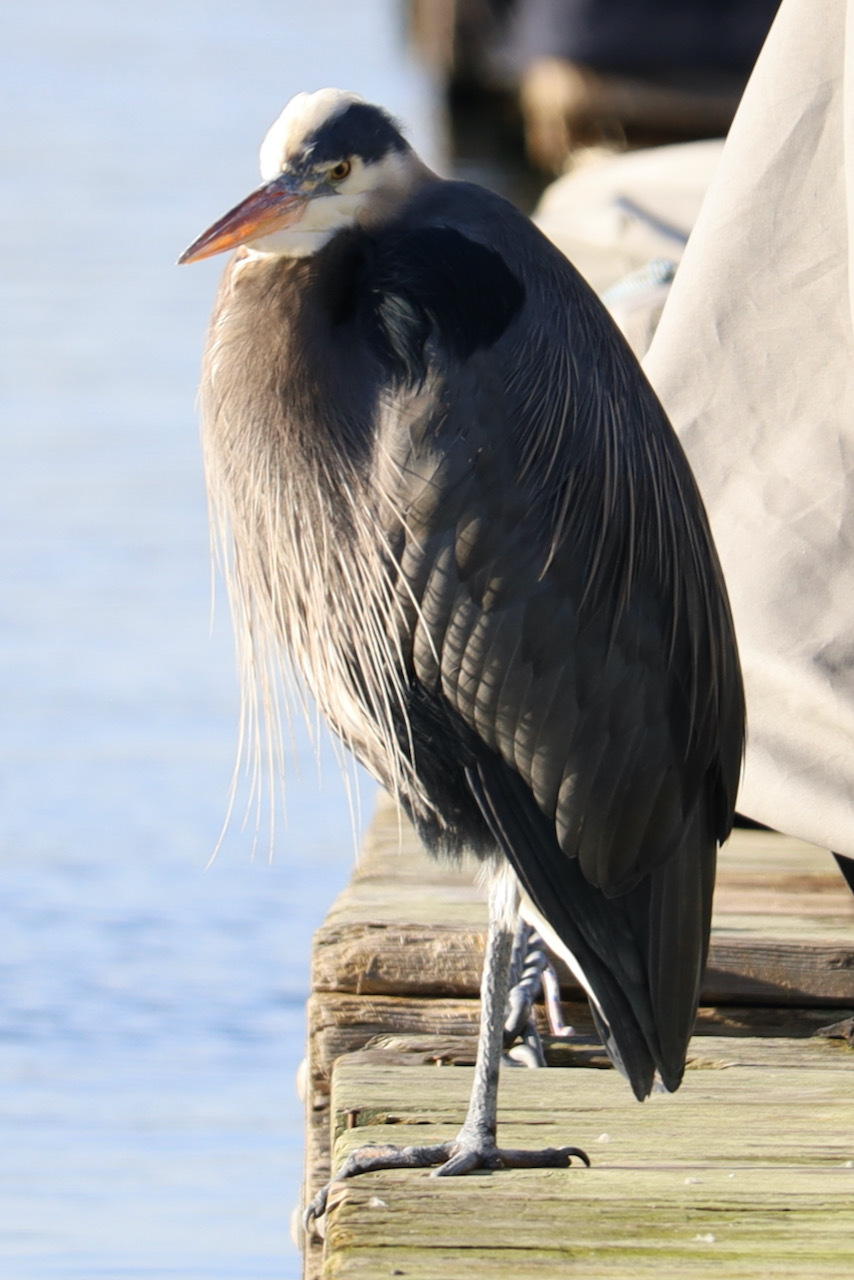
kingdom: Animalia
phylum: Chordata
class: Aves
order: Pelecaniformes
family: Ardeidae
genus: Ardea
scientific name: Ardea herodias
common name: Great blue heron
